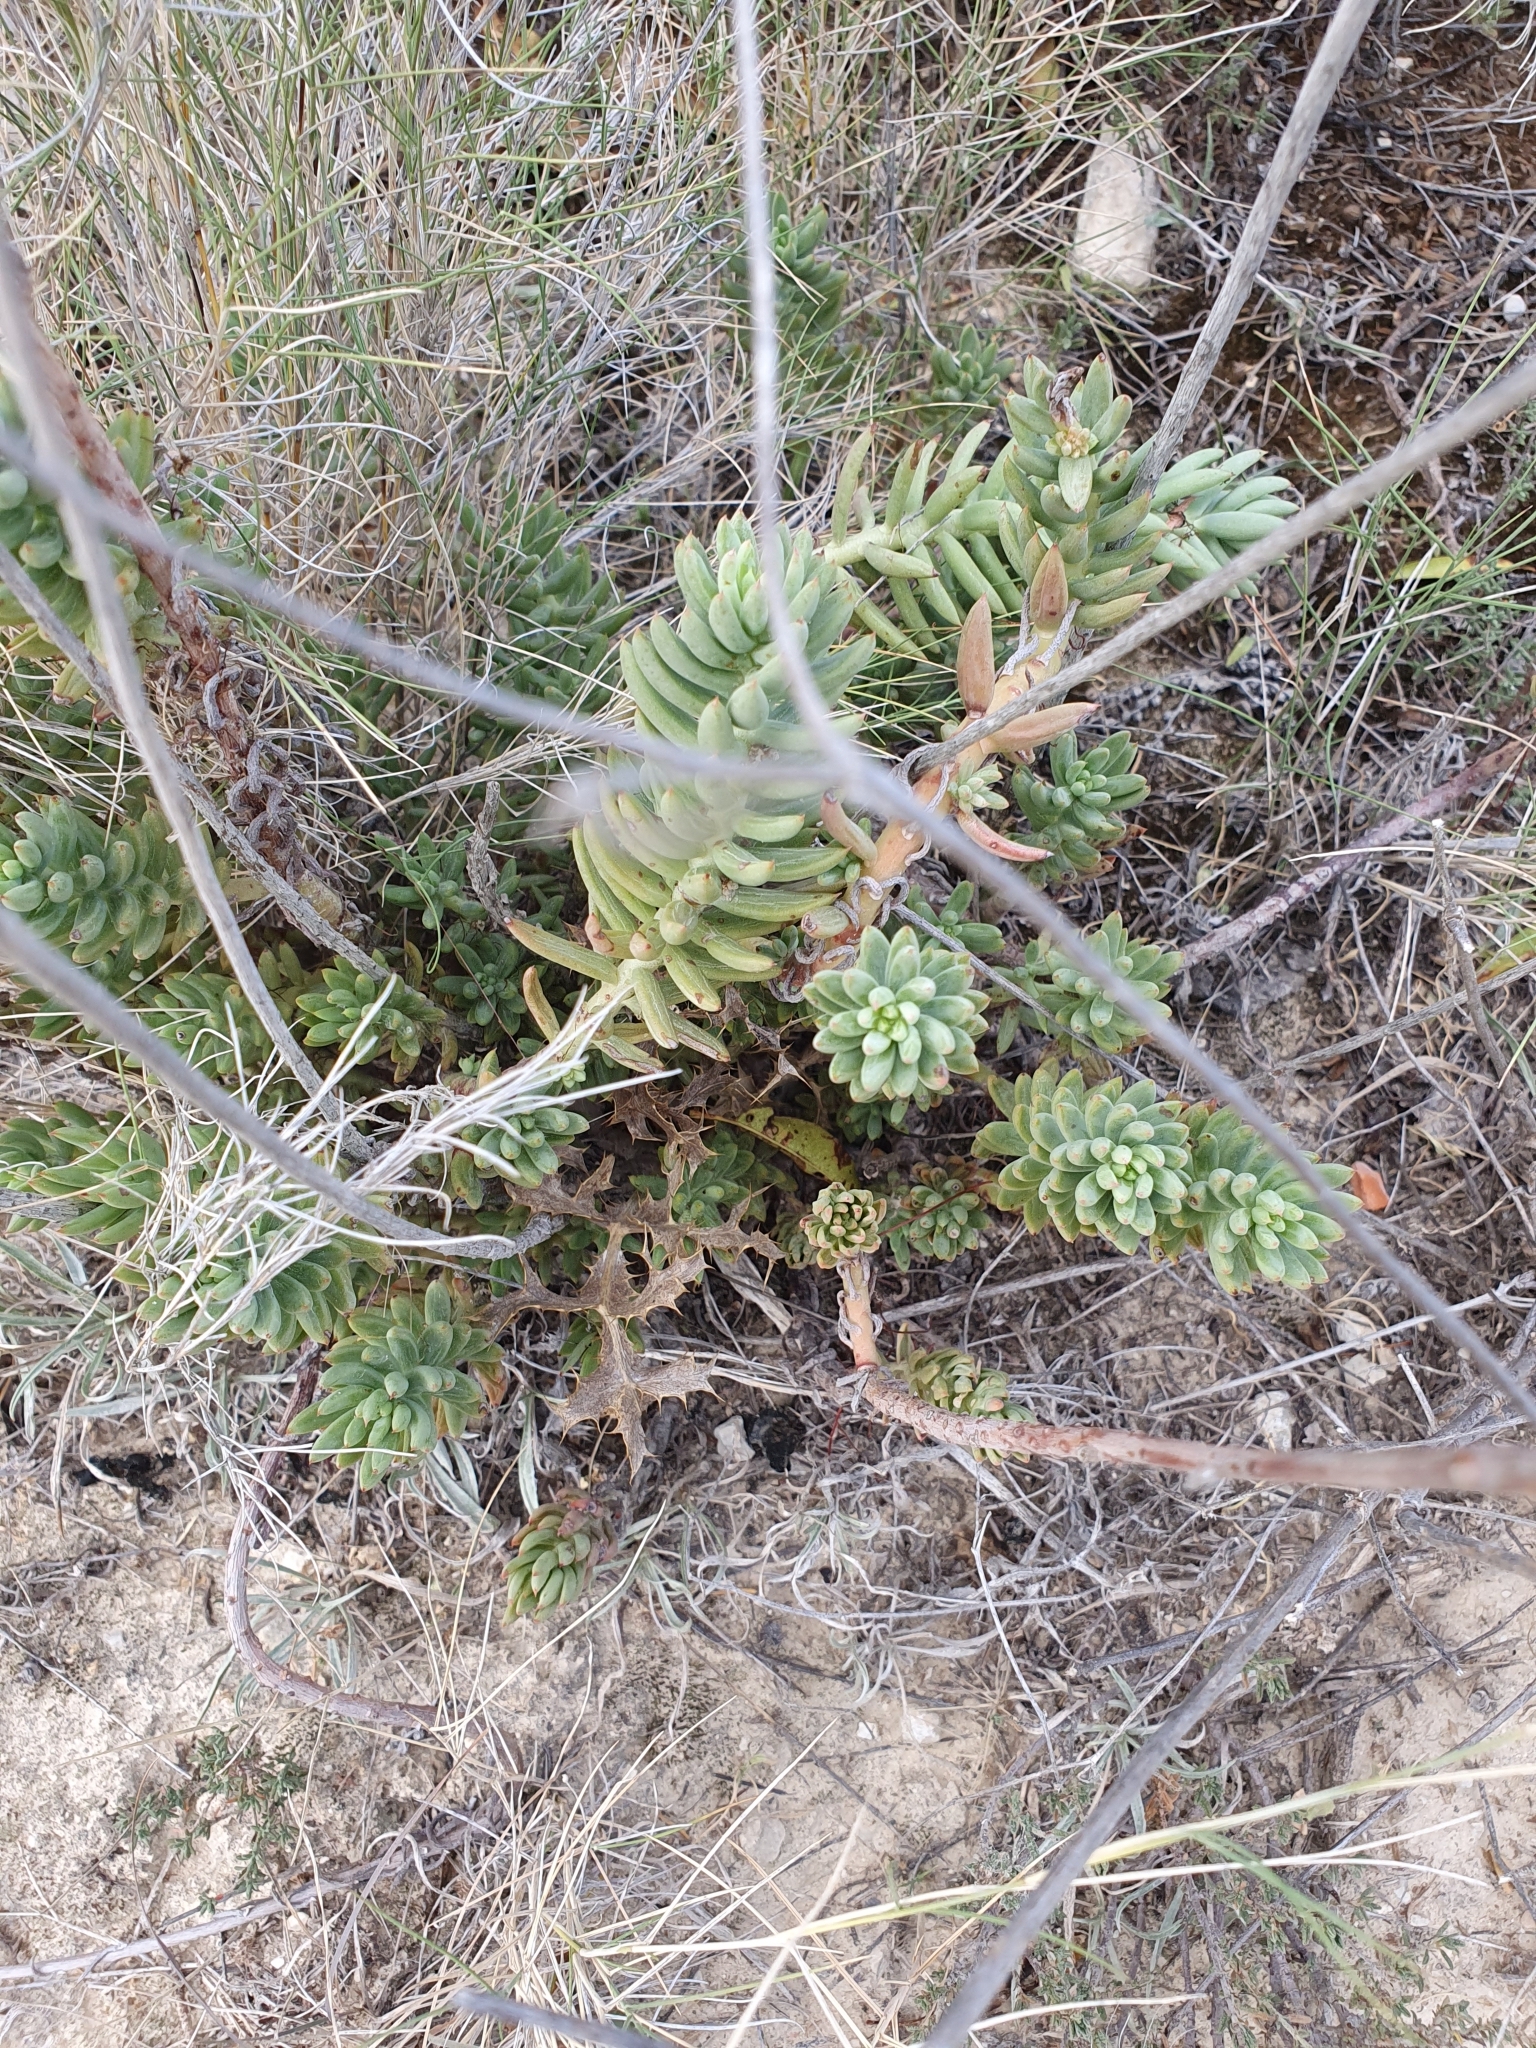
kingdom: Plantae
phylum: Tracheophyta
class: Magnoliopsida
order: Saxifragales
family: Crassulaceae
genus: Petrosedum
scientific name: Petrosedum sediforme
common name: Pale stonecrop
